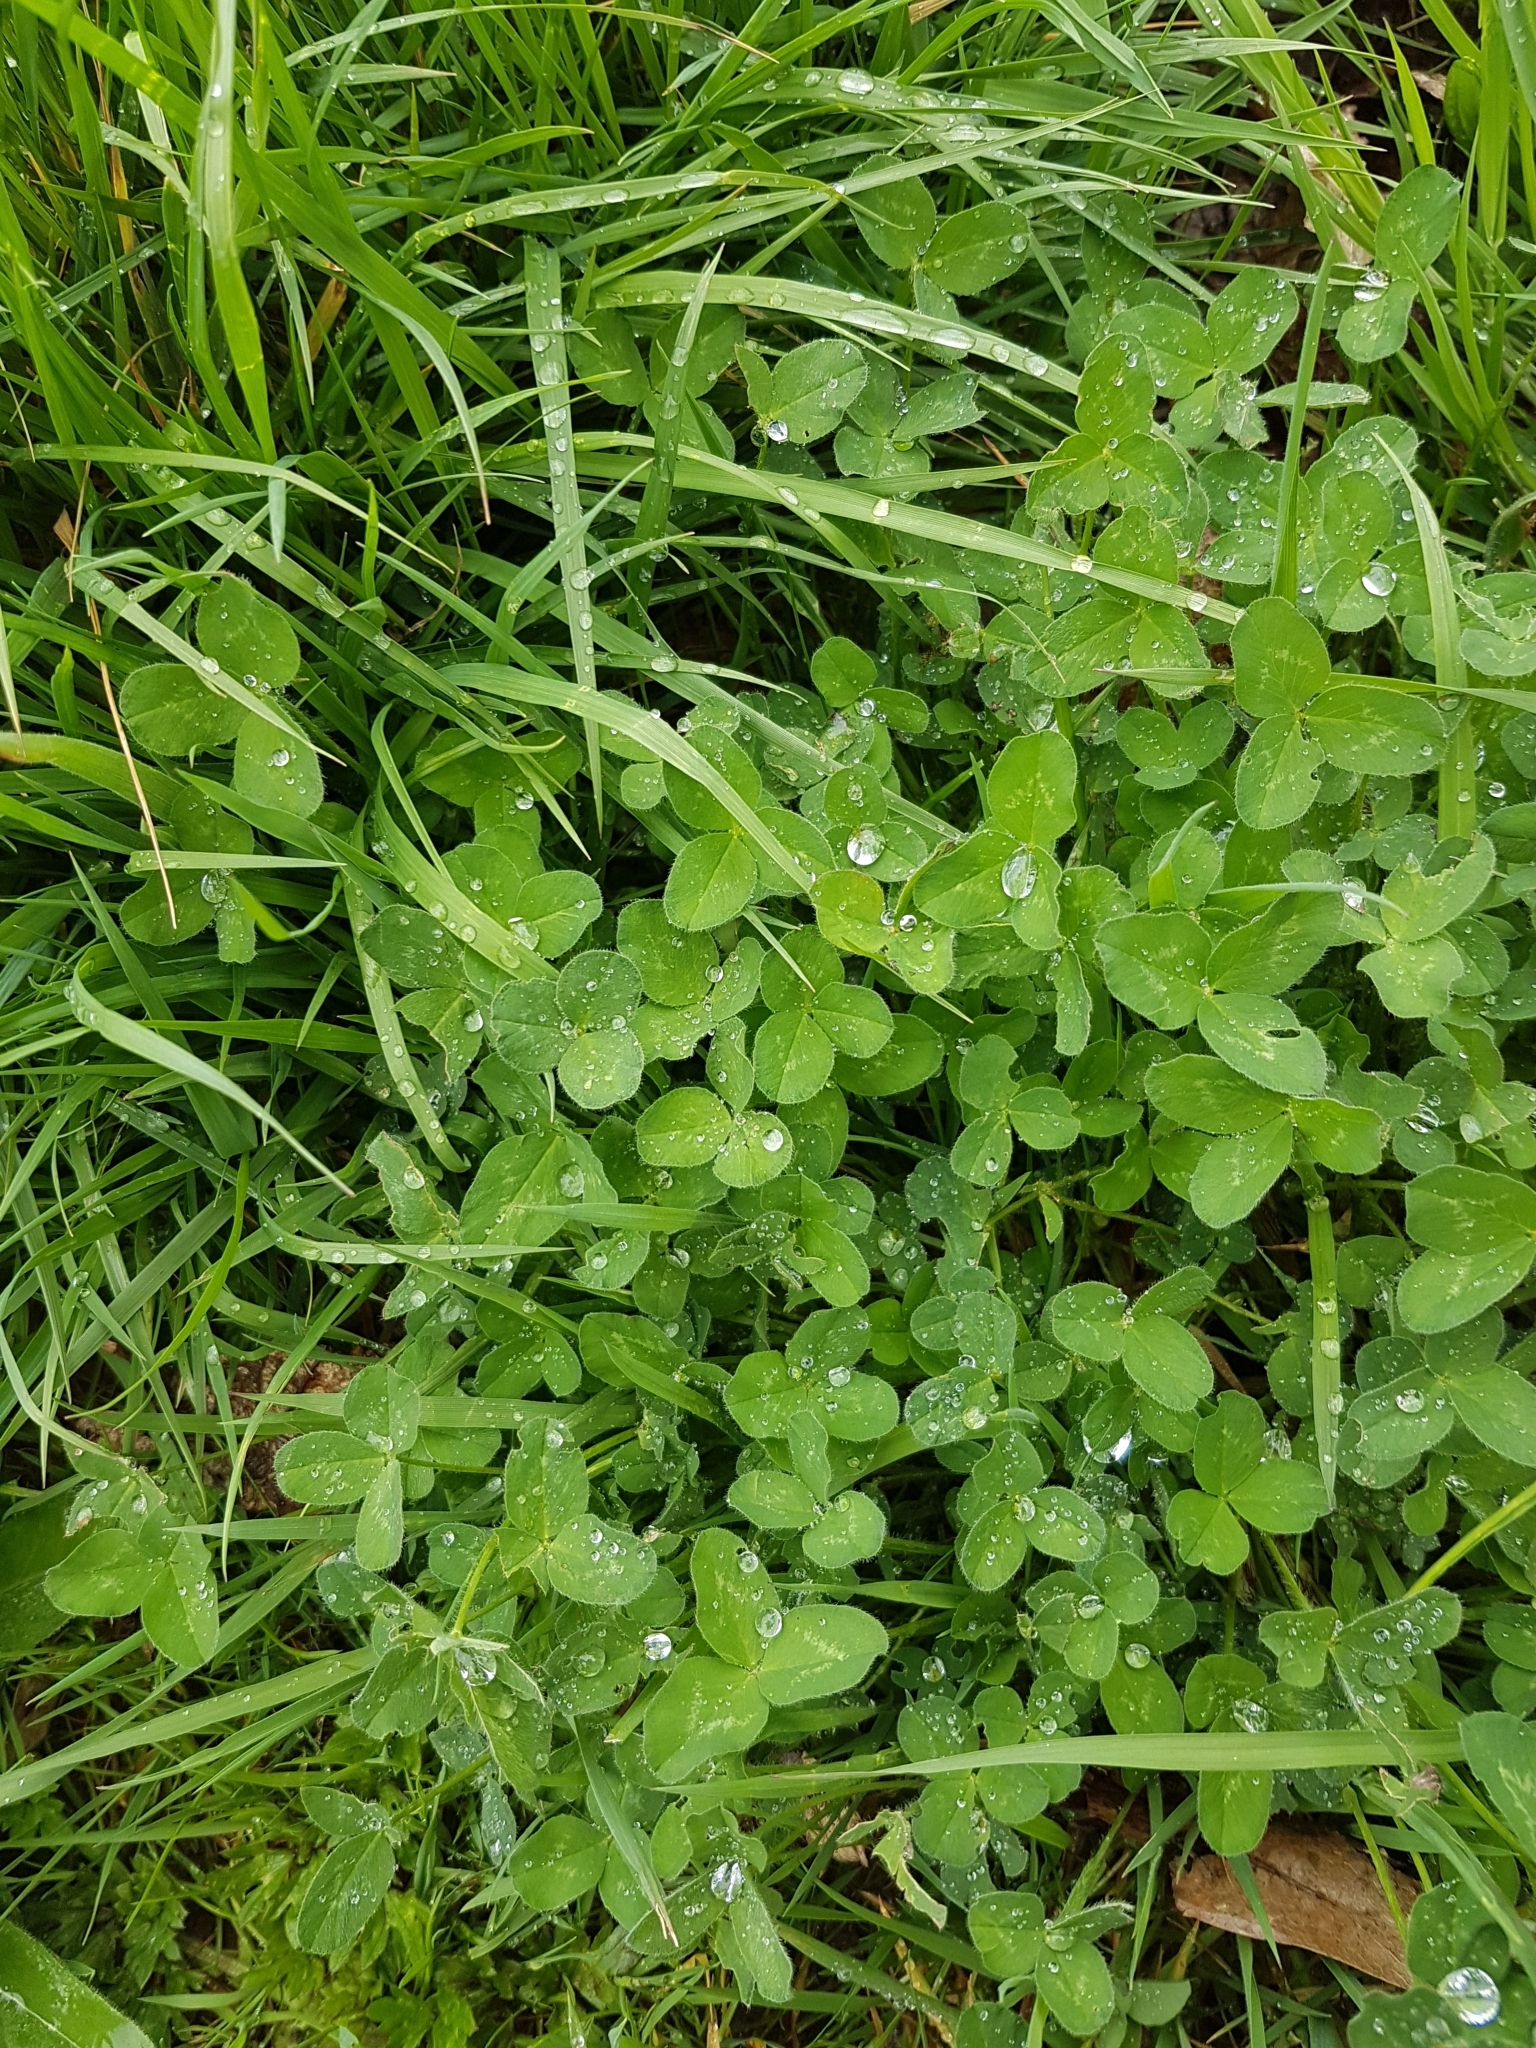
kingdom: Plantae
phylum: Tracheophyta
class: Magnoliopsida
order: Fabales
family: Fabaceae
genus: Trifolium
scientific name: Trifolium pratense
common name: Red clover
